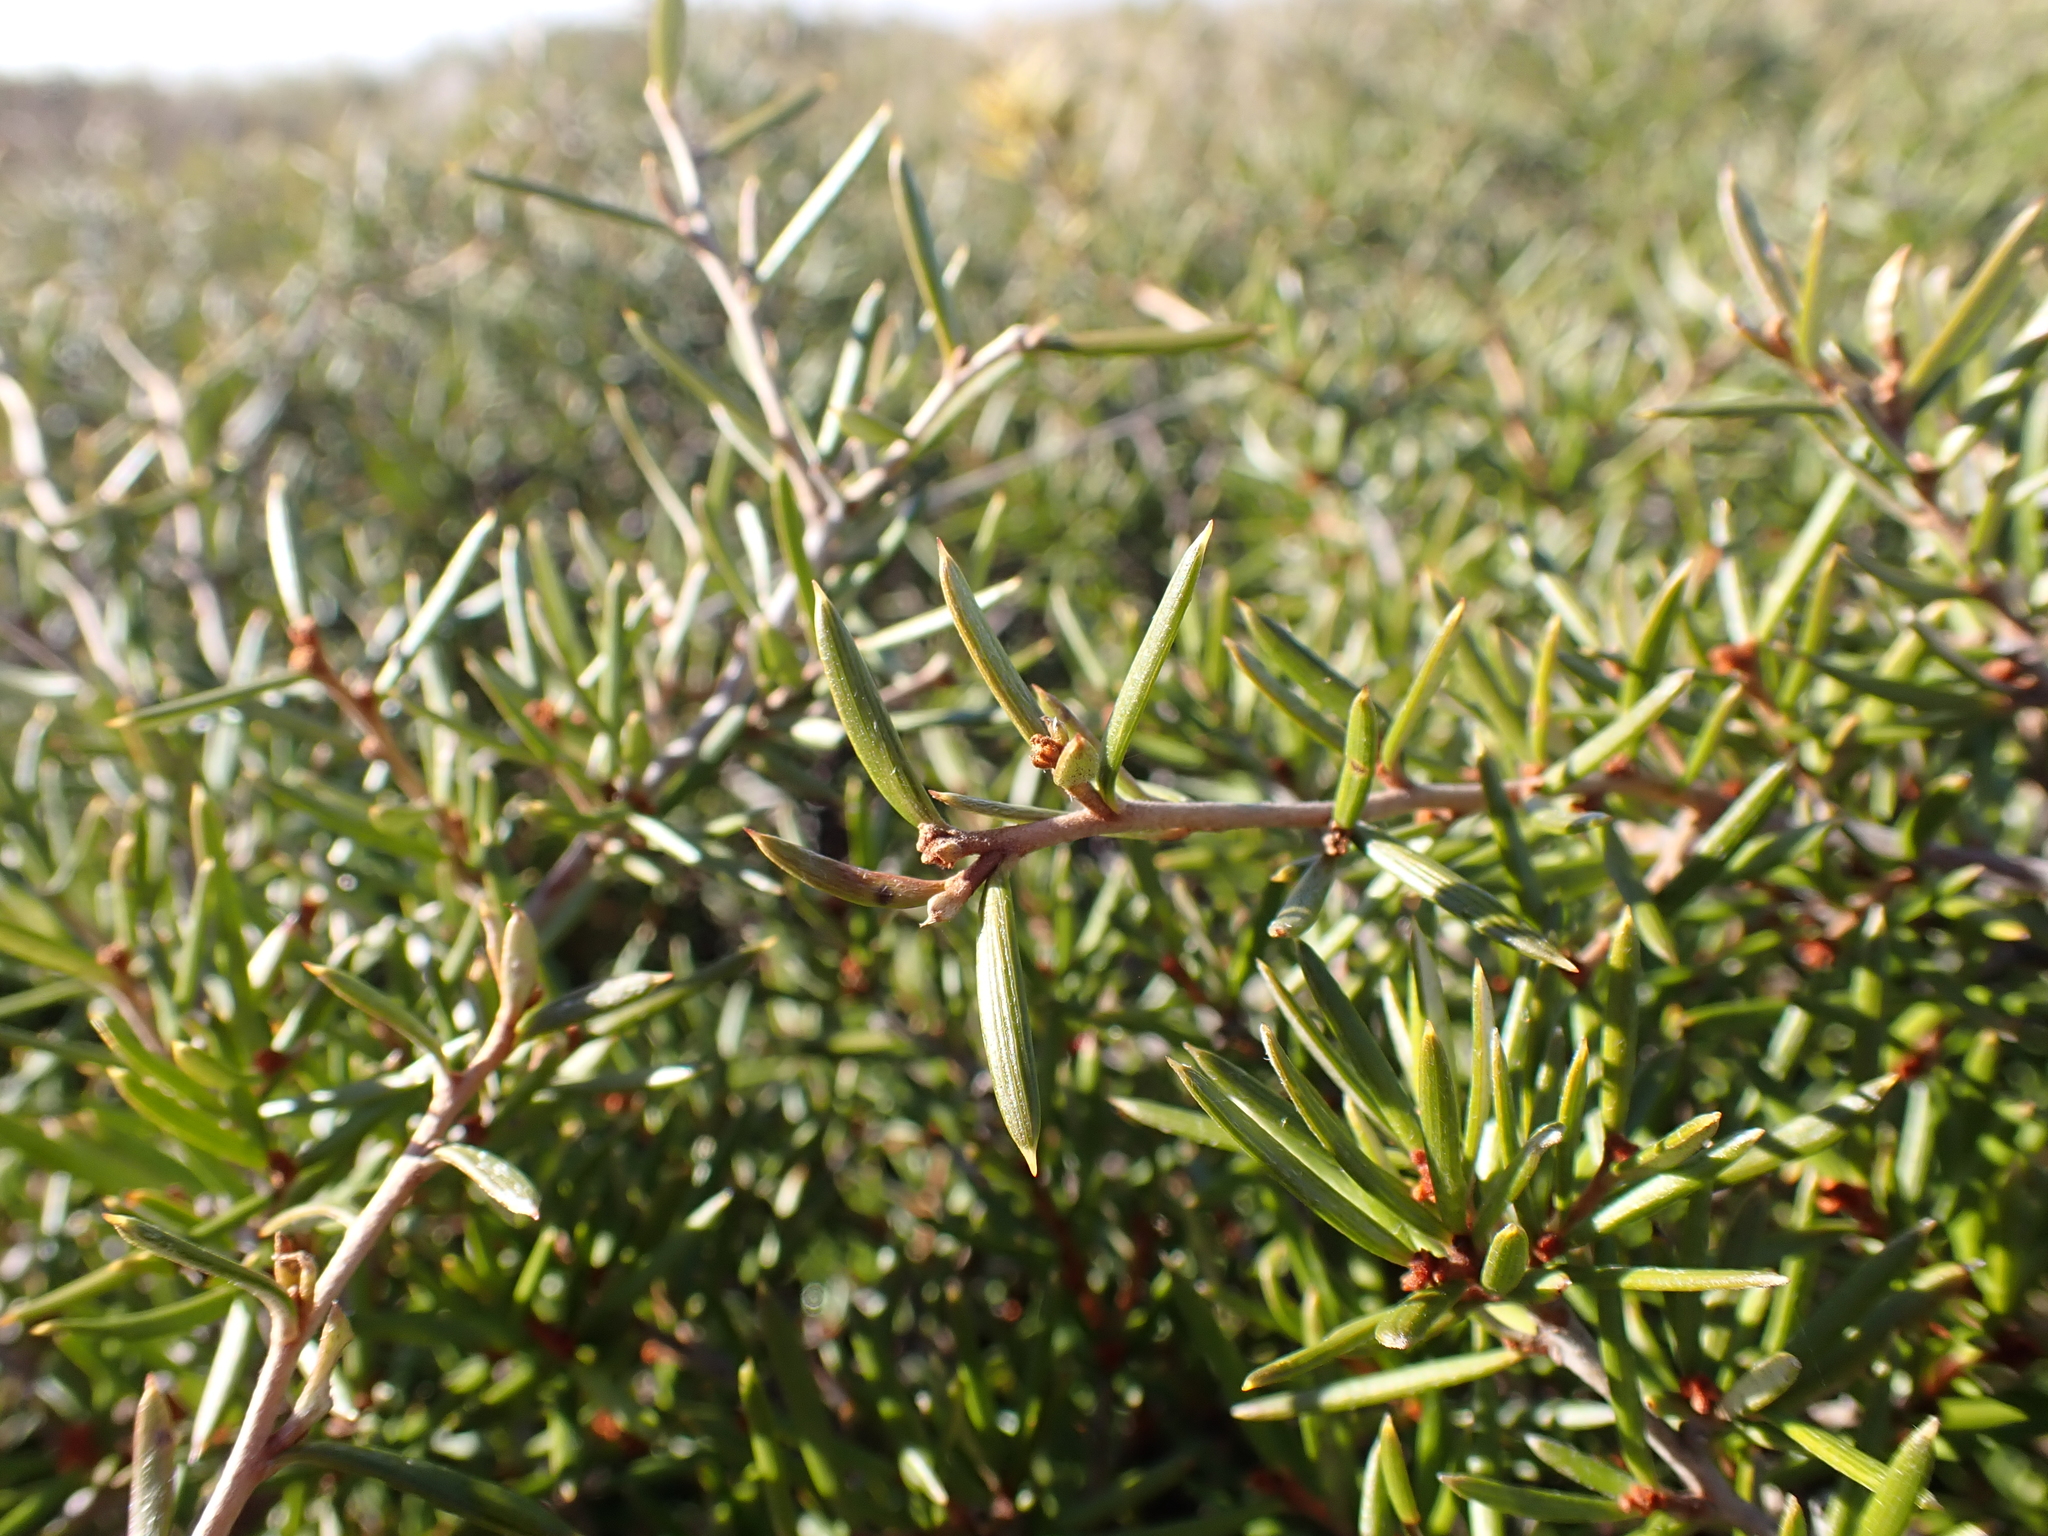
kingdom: Plantae
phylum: Tracheophyta
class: Magnoliopsida
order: Proteales
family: Proteaceae
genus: Grevillea
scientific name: Grevillea australis
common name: Alpine grevillea
